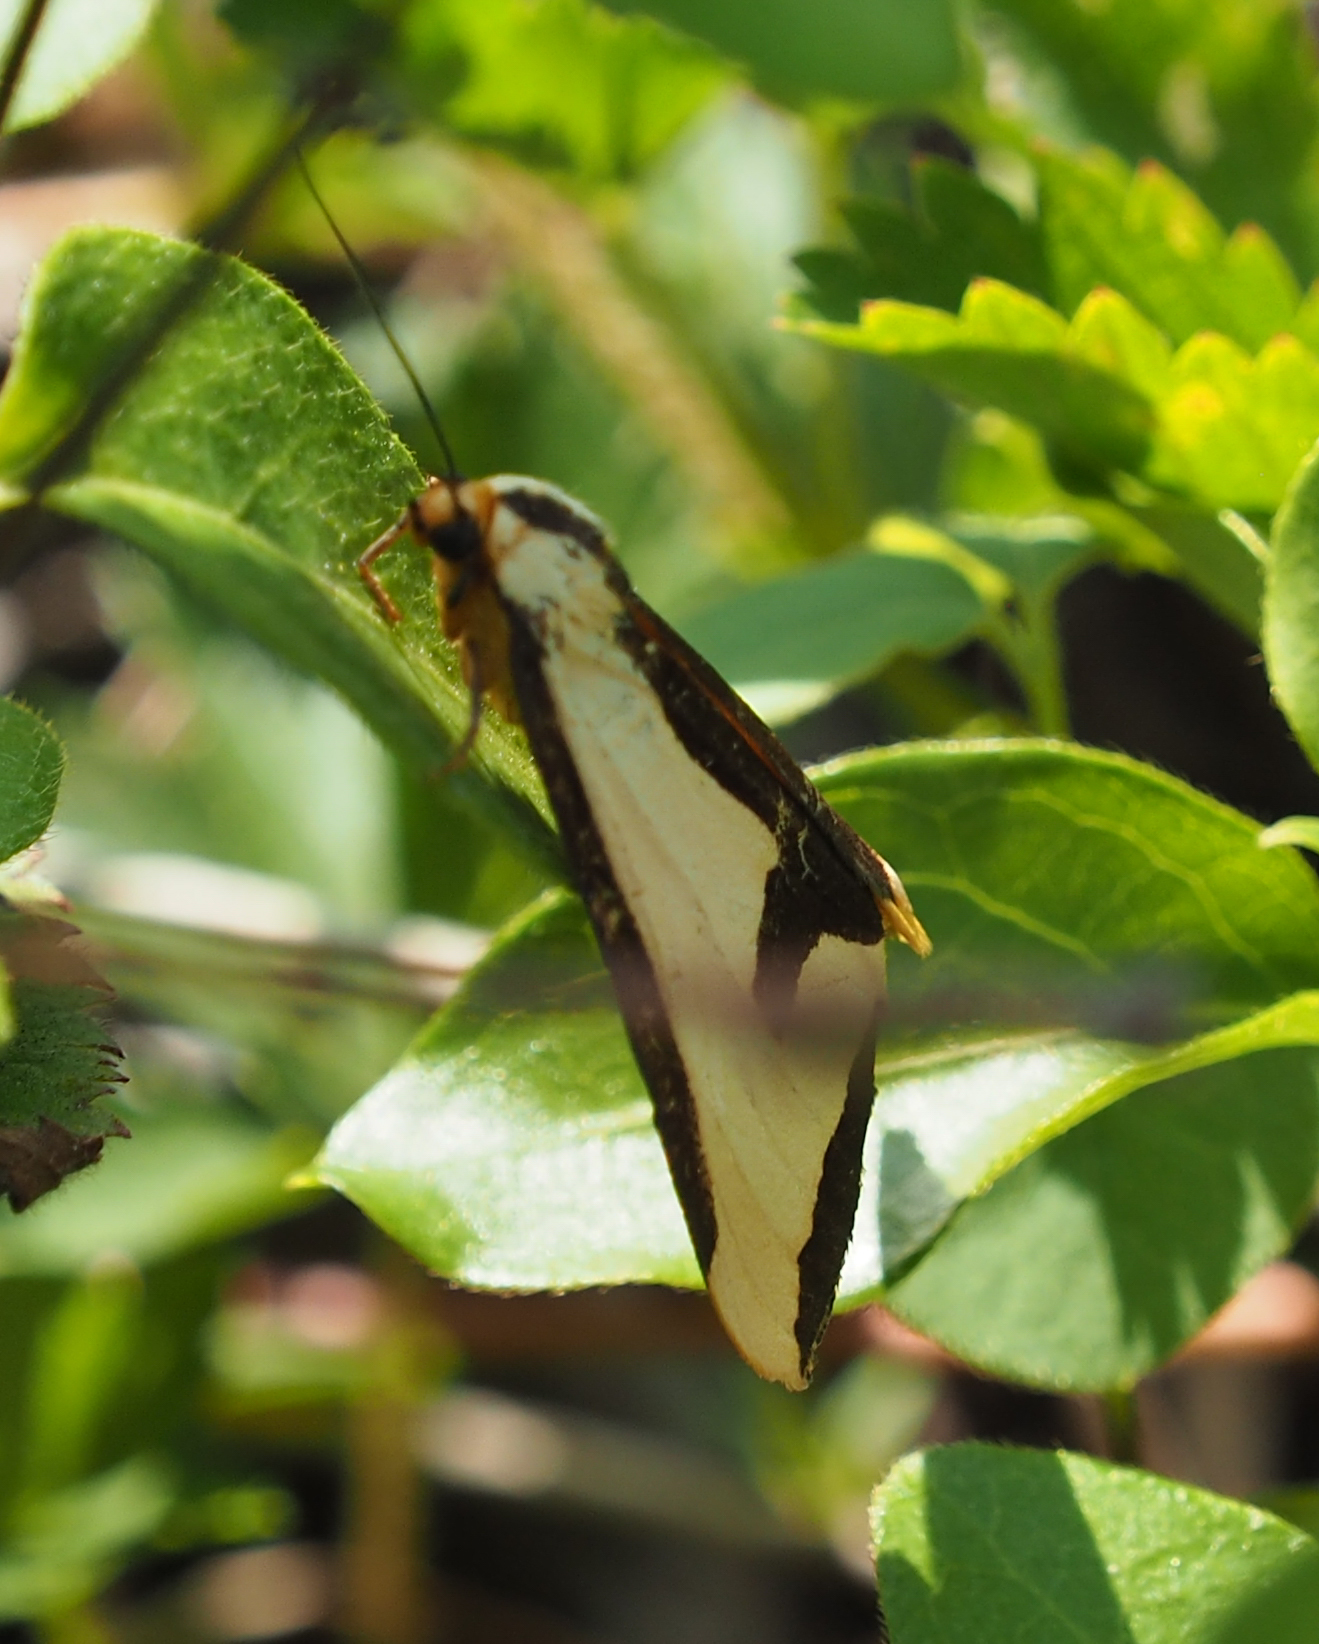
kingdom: Animalia
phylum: Arthropoda
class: Insecta
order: Lepidoptera
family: Erebidae
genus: Haploa
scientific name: Haploa clymene
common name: Clymene moth
